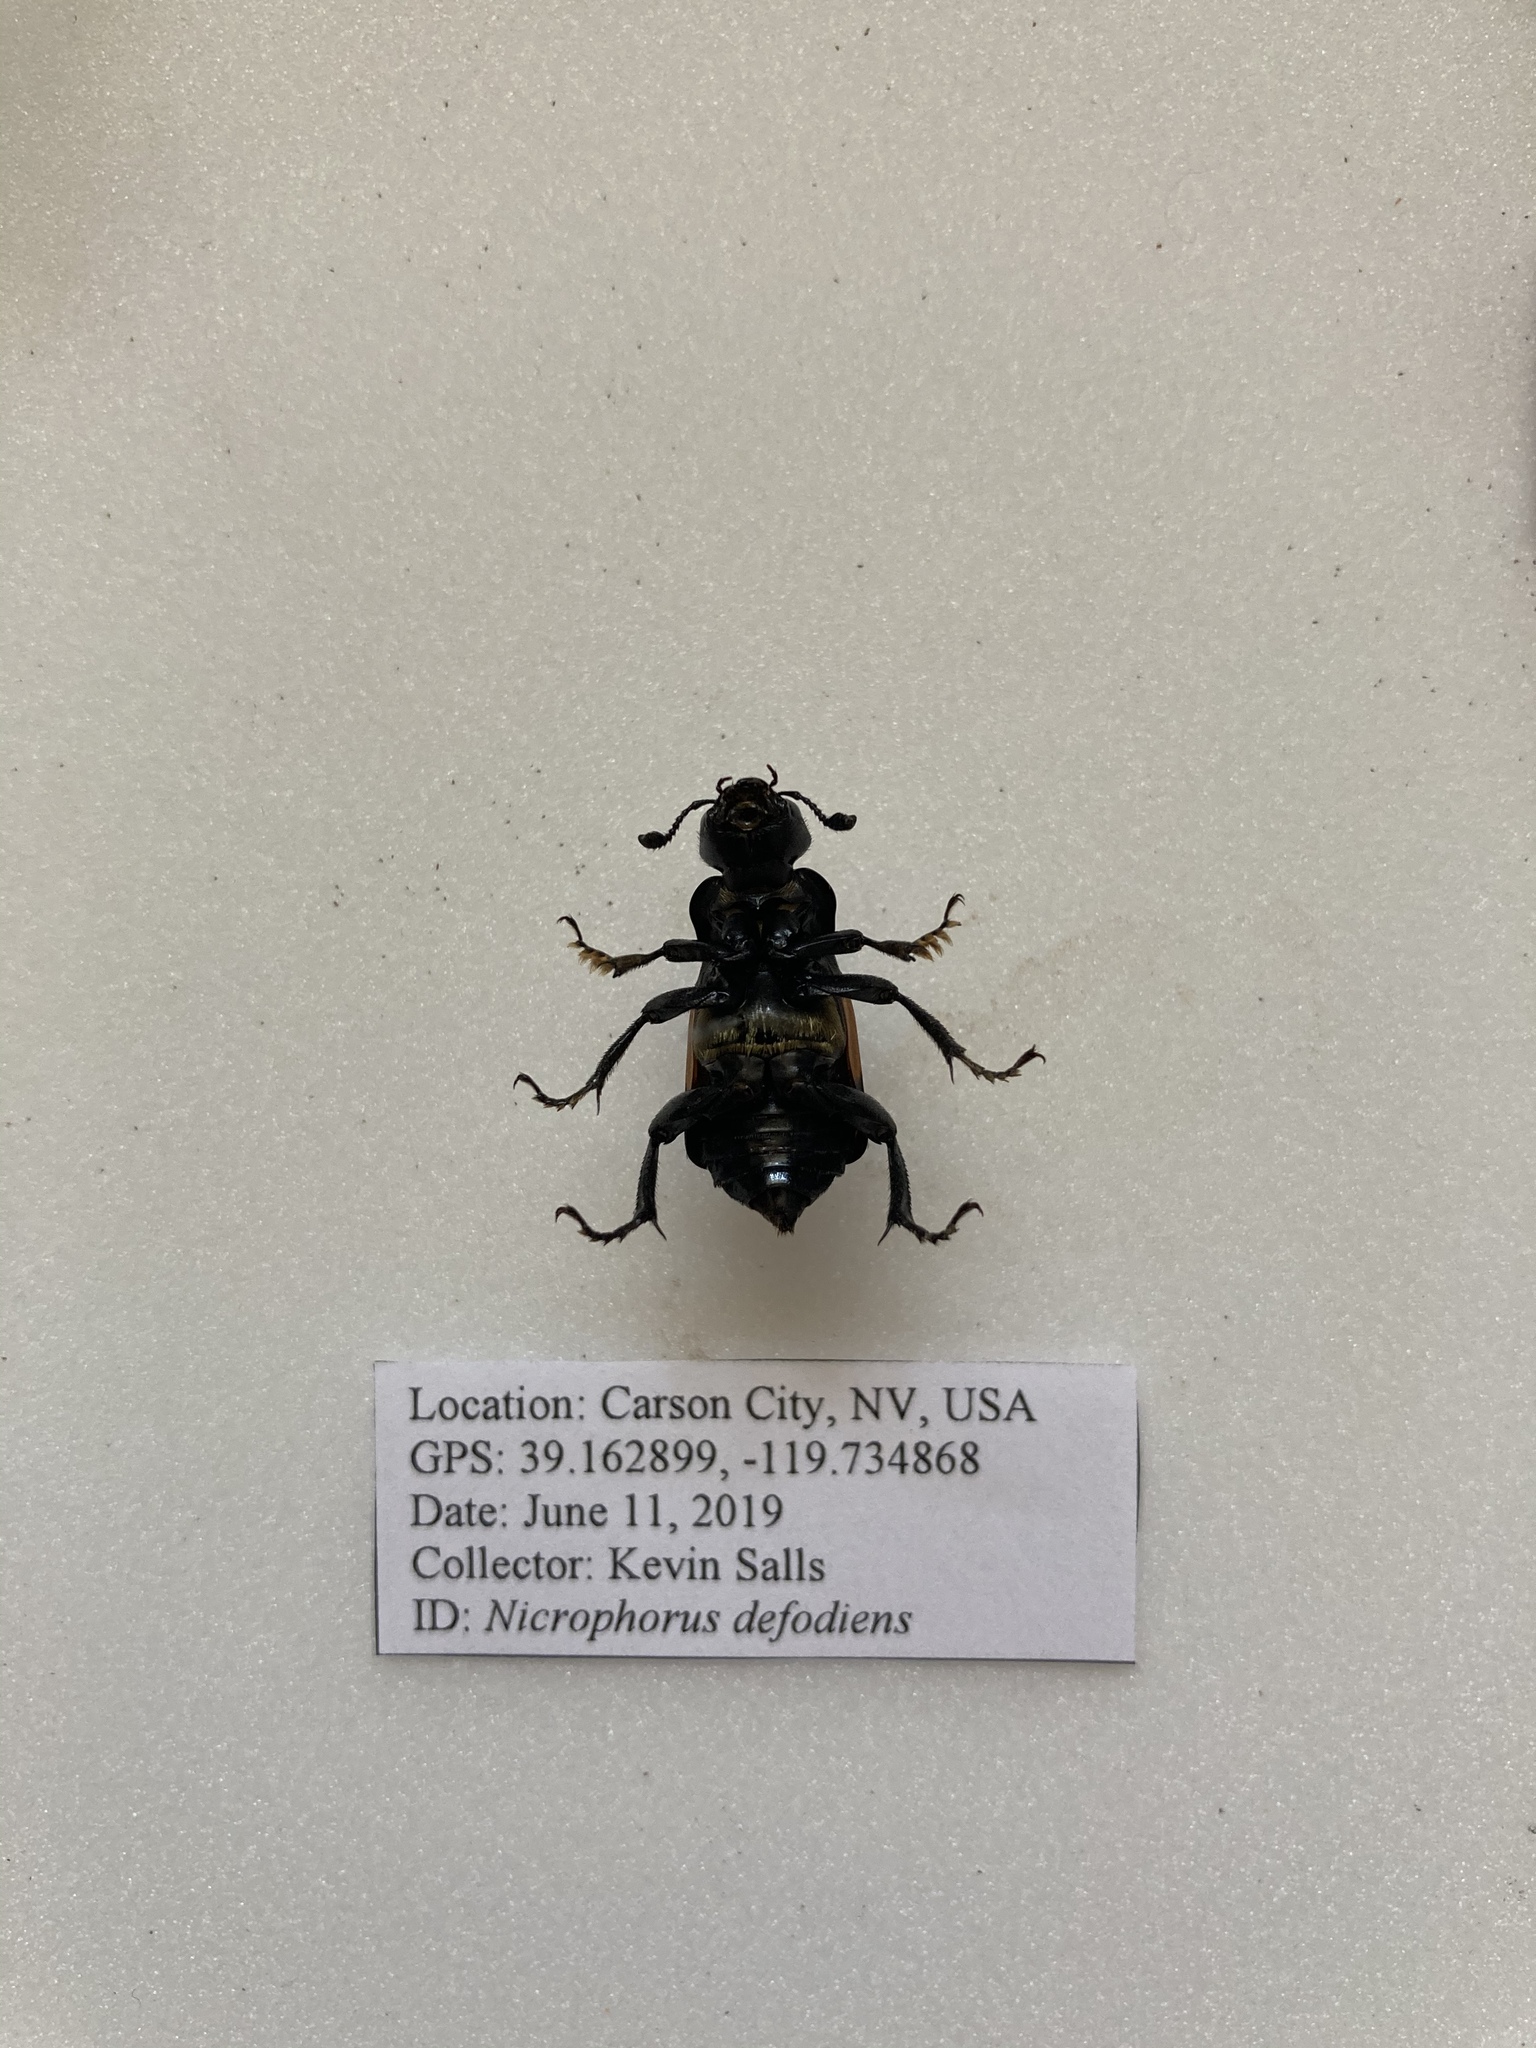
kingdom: Animalia
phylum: Arthropoda
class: Insecta
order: Coleoptera
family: Staphylinidae
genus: Nicrophorus
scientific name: Nicrophorus defodiens
